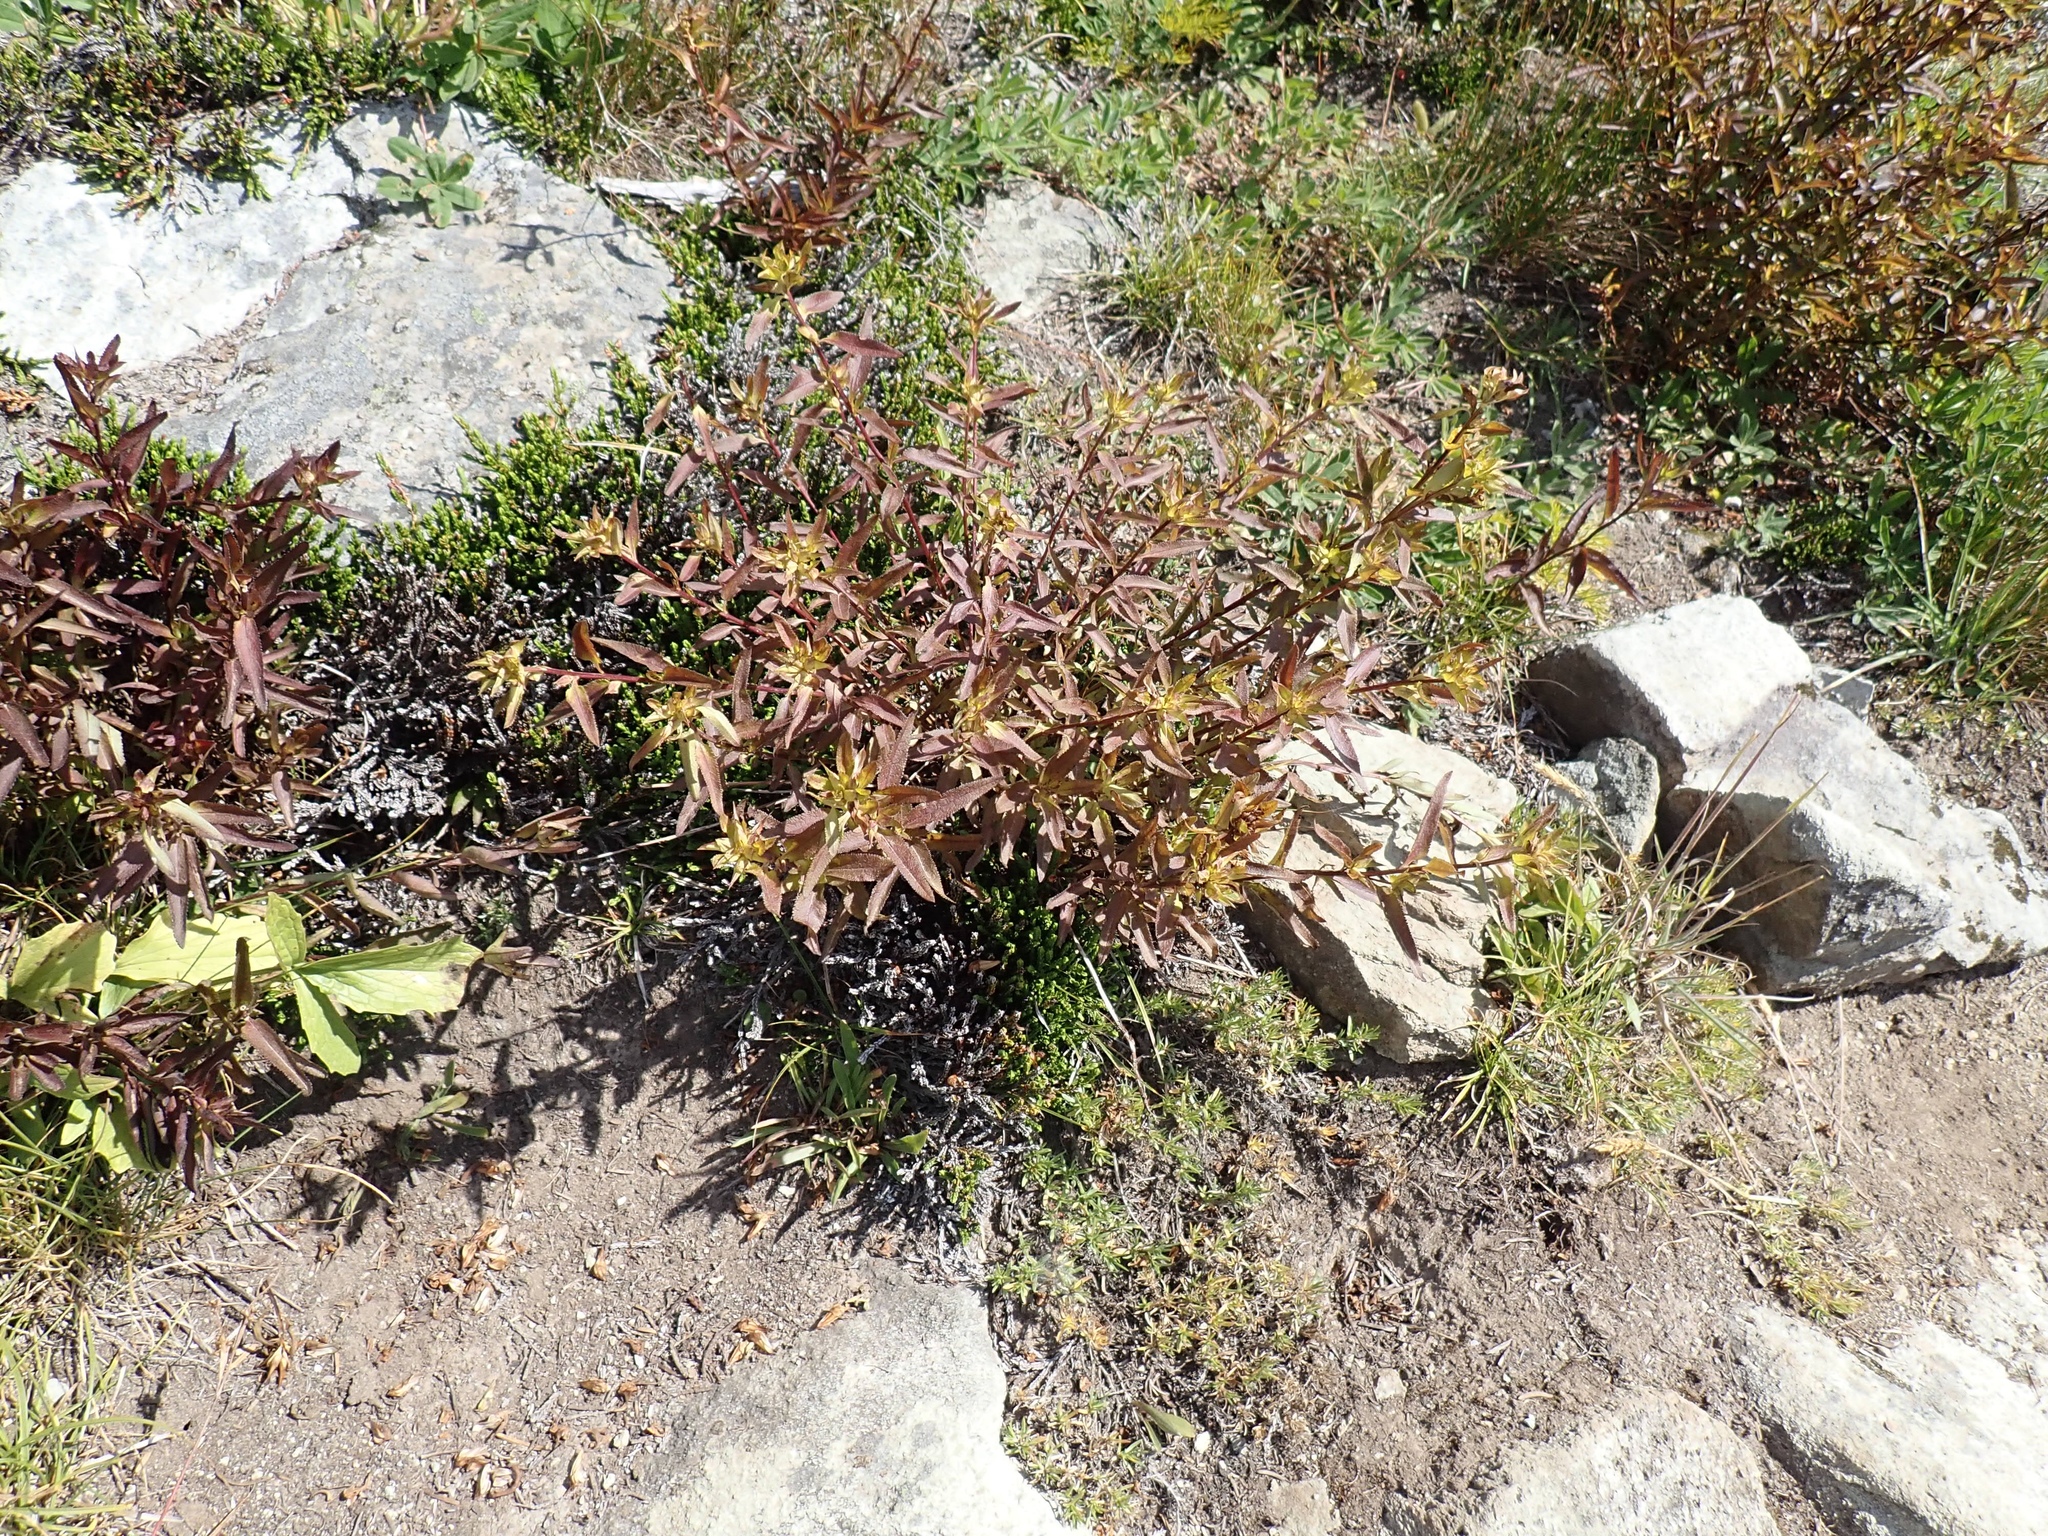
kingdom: Plantae
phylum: Tracheophyta
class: Magnoliopsida
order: Lamiales
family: Orobanchaceae
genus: Pedicularis
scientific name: Pedicularis racemosa
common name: Leafy lousewort
